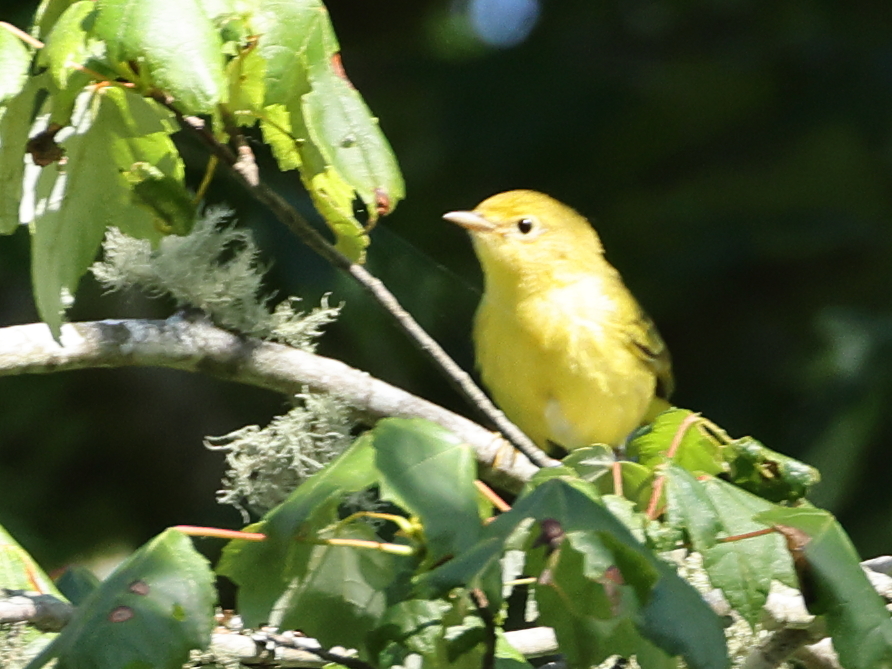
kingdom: Animalia
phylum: Chordata
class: Aves
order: Passeriformes
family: Parulidae
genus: Setophaga
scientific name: Setophaga petechia
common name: Yellow warbler
